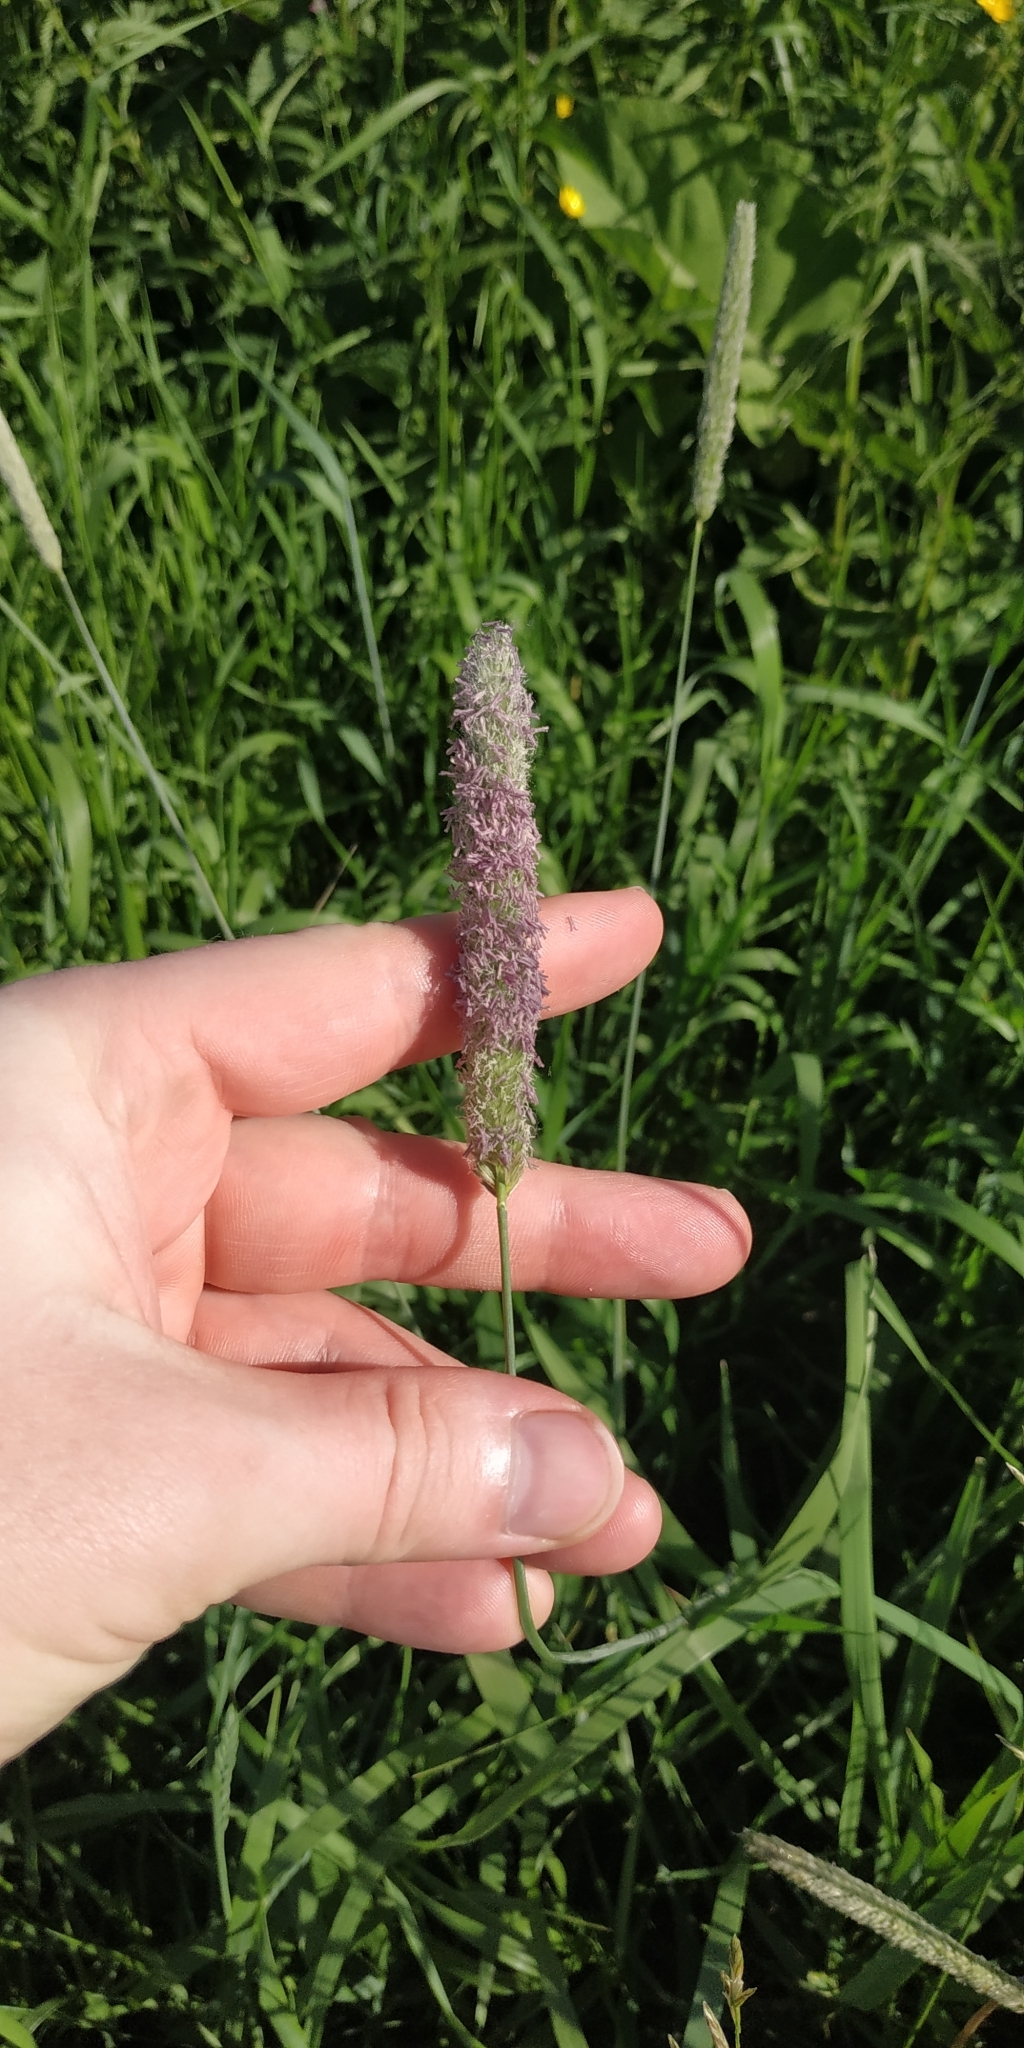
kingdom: Plantae
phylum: Tracheophyta
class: Liliopsida
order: Poales
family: Poaceae
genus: Phleum
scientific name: Phleum pratense
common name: Timothy grass
